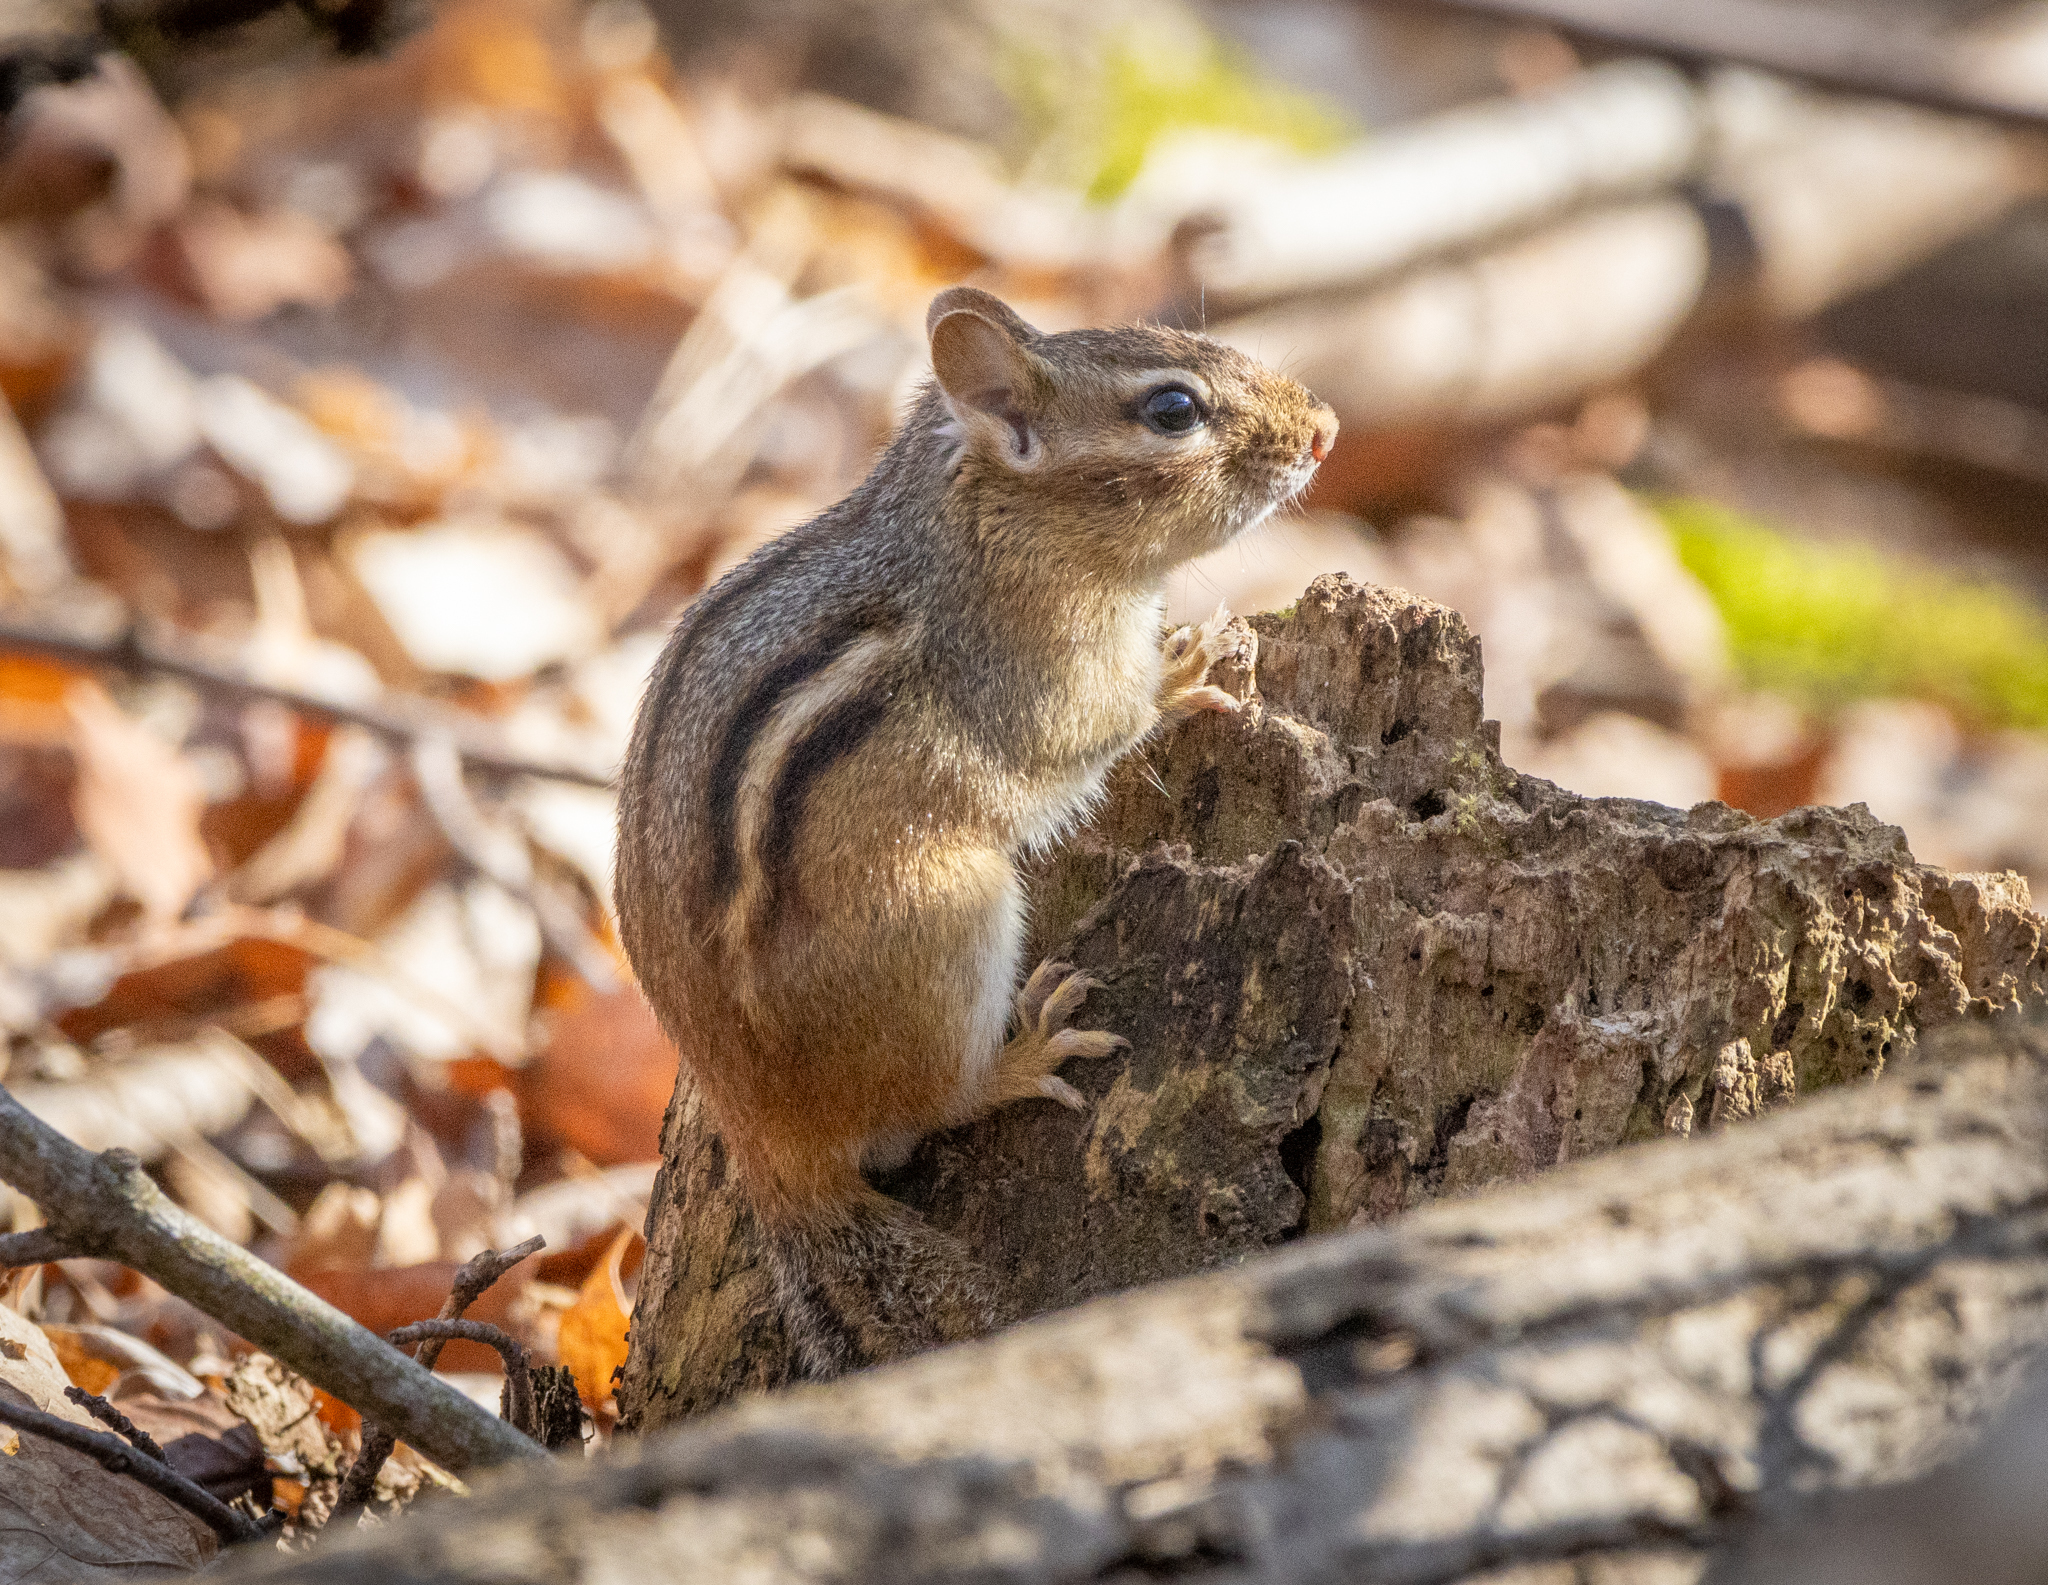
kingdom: Animalia
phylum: Chordata
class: Mammalia
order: Rodentia
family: Sciuridae
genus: Tamias
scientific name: Tamias striatus
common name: Eastern chipmunk
